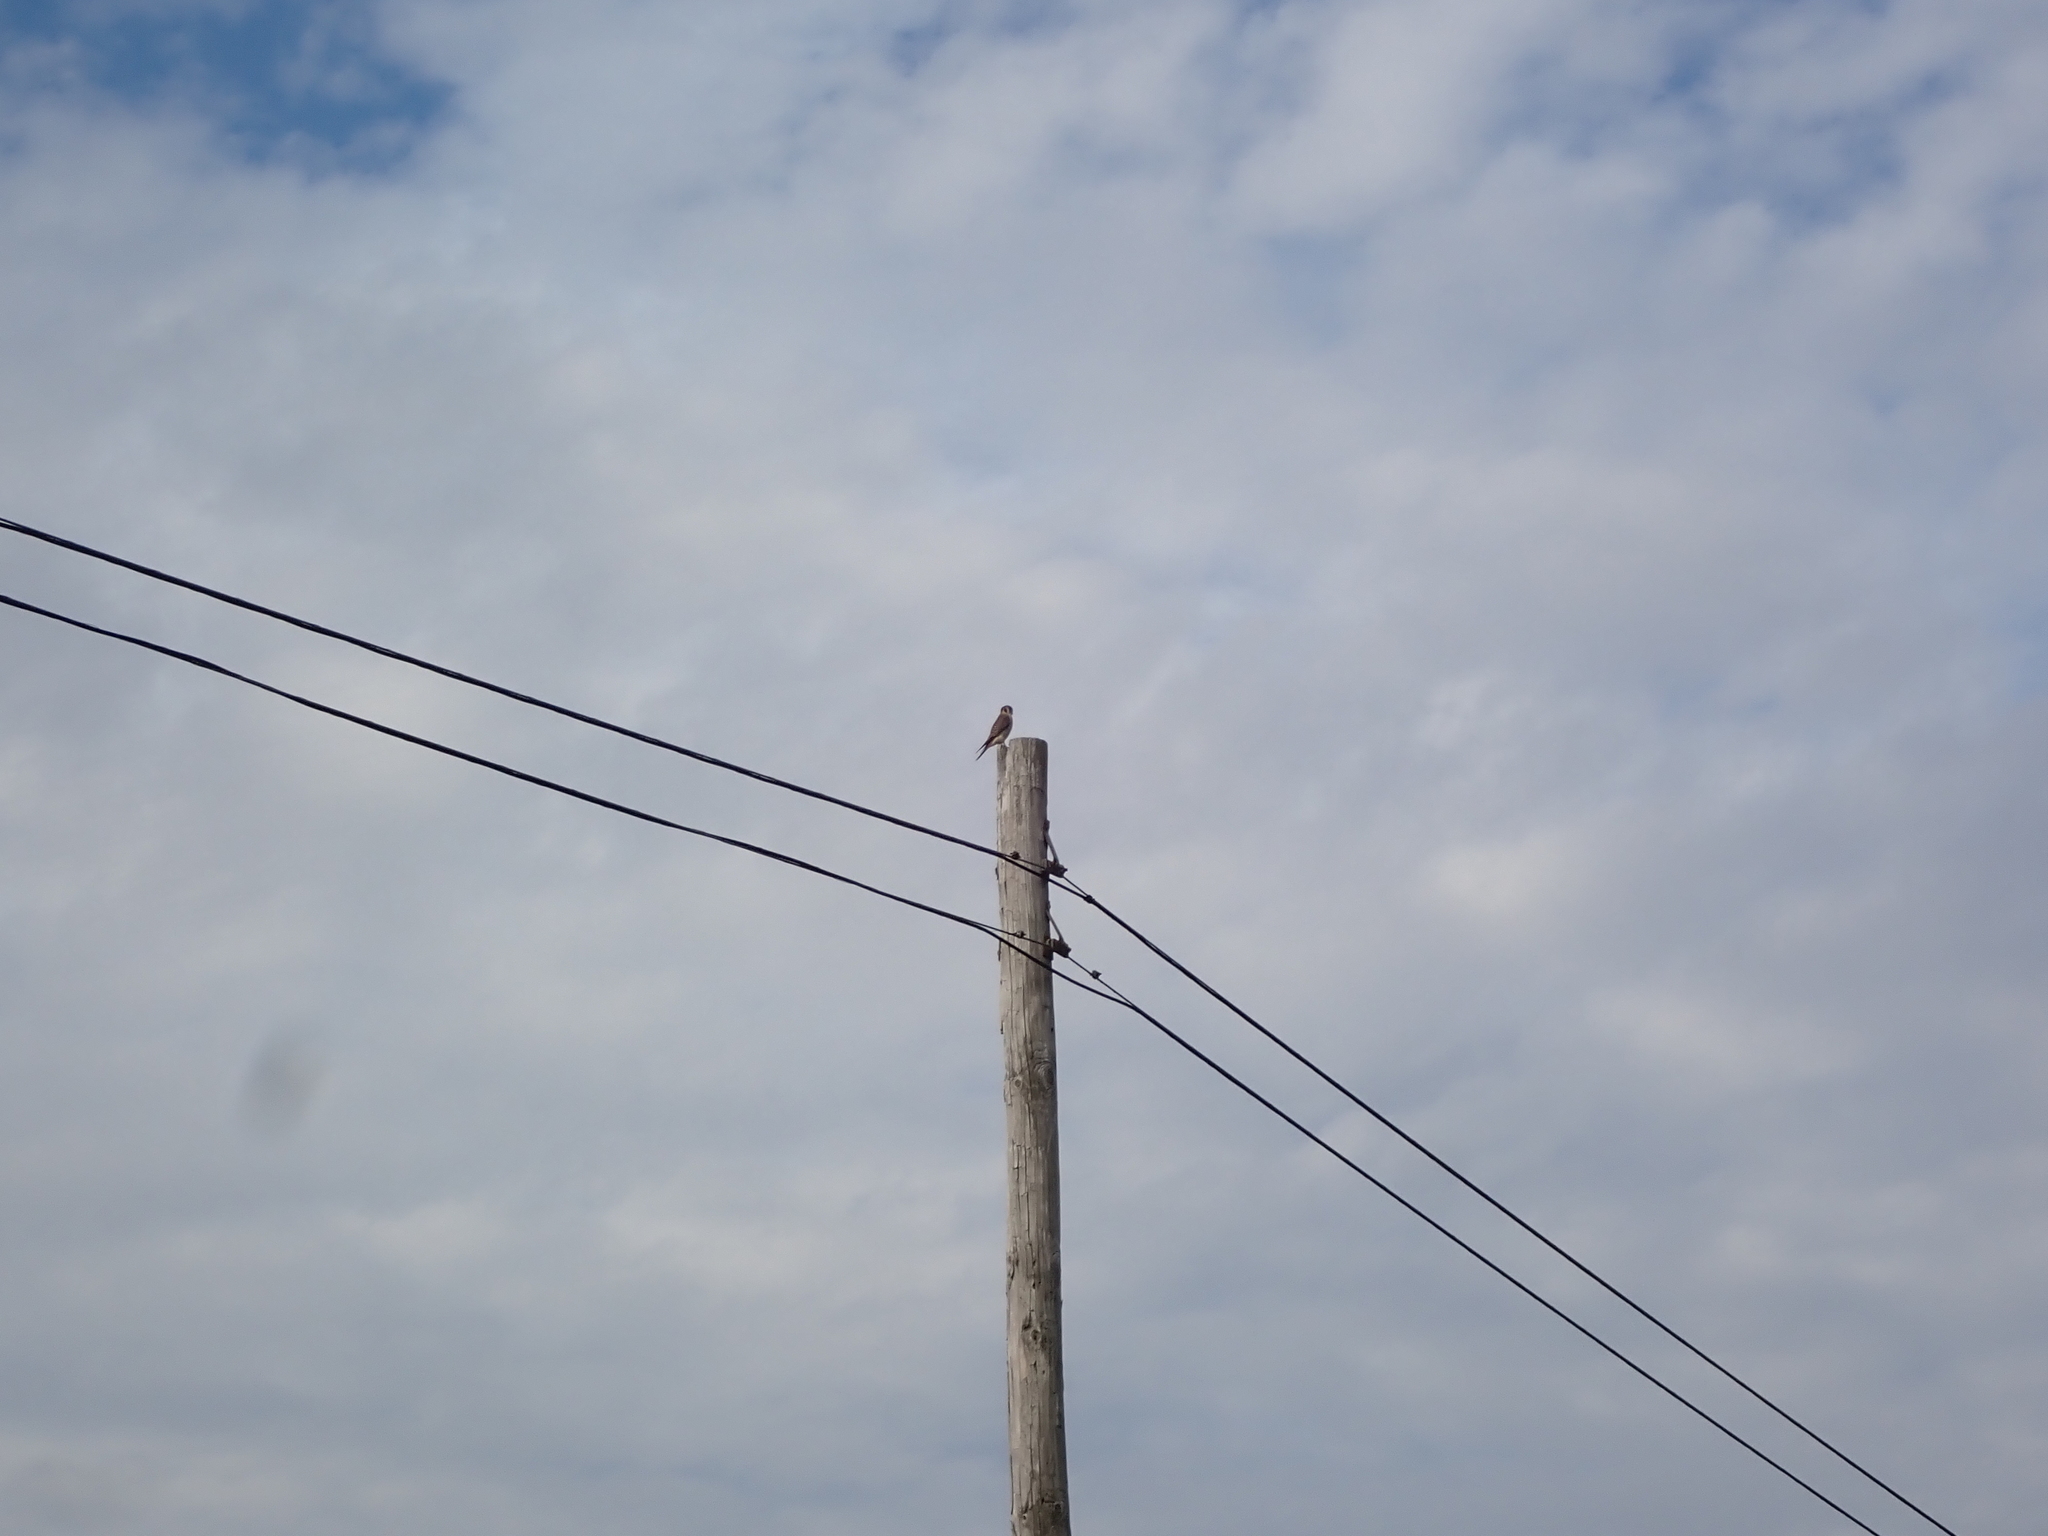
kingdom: Animalia
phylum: Chordata
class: Aves
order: Falconiformes
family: Falconidae
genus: Falco
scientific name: Falco sparverius
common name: American kestrel
